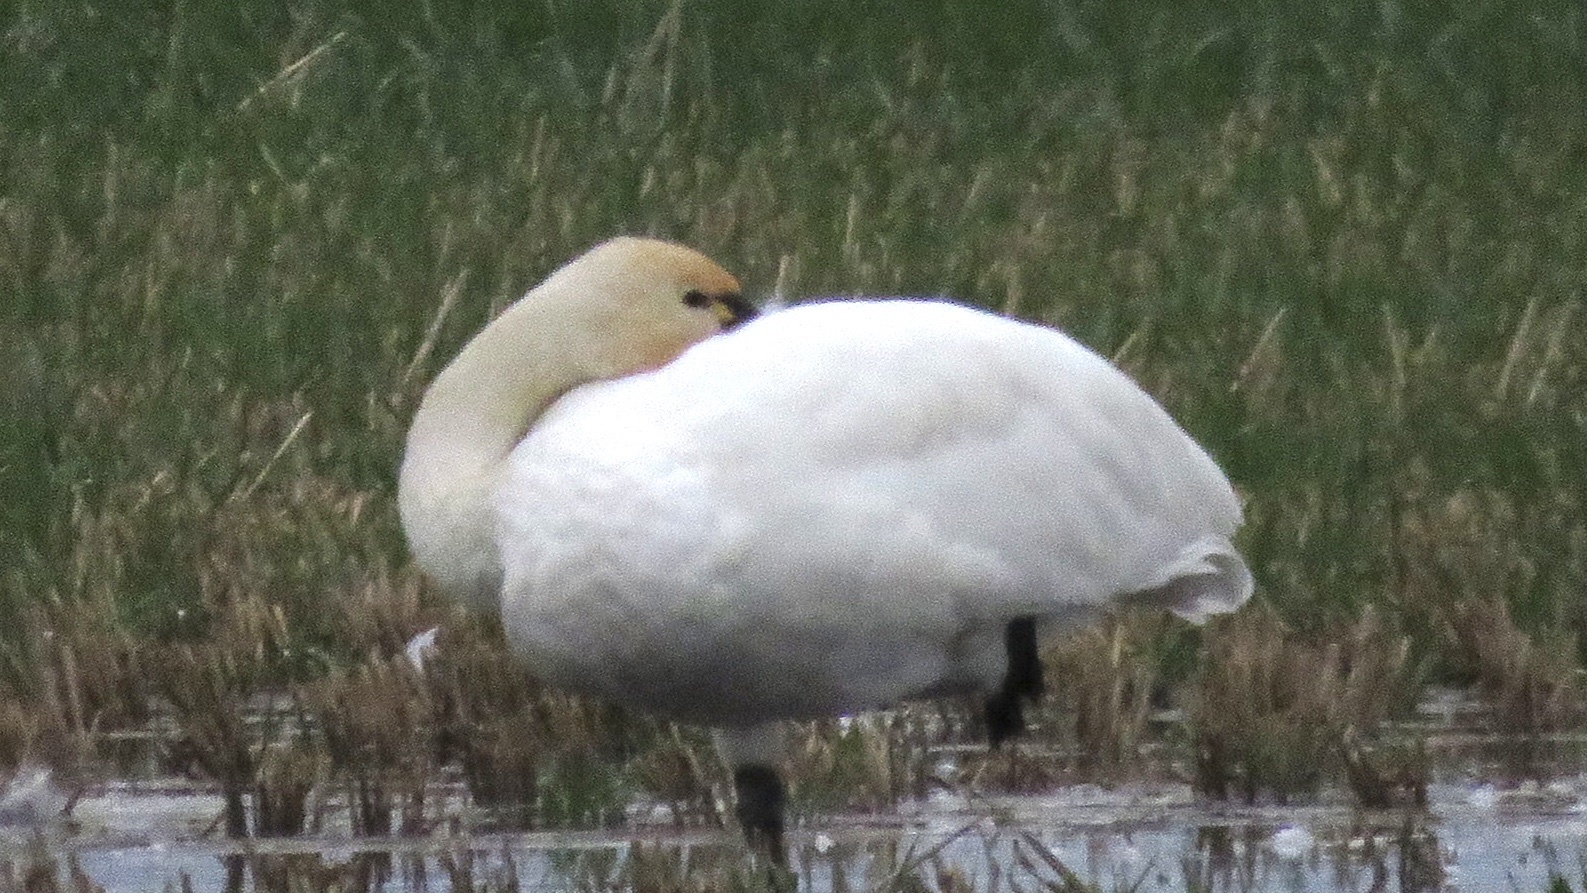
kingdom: Animalia
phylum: Chordata
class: Aves
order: Anseriformes
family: Anatidae
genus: Cygnus
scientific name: Cygnus columbianus
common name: Tundra swan
